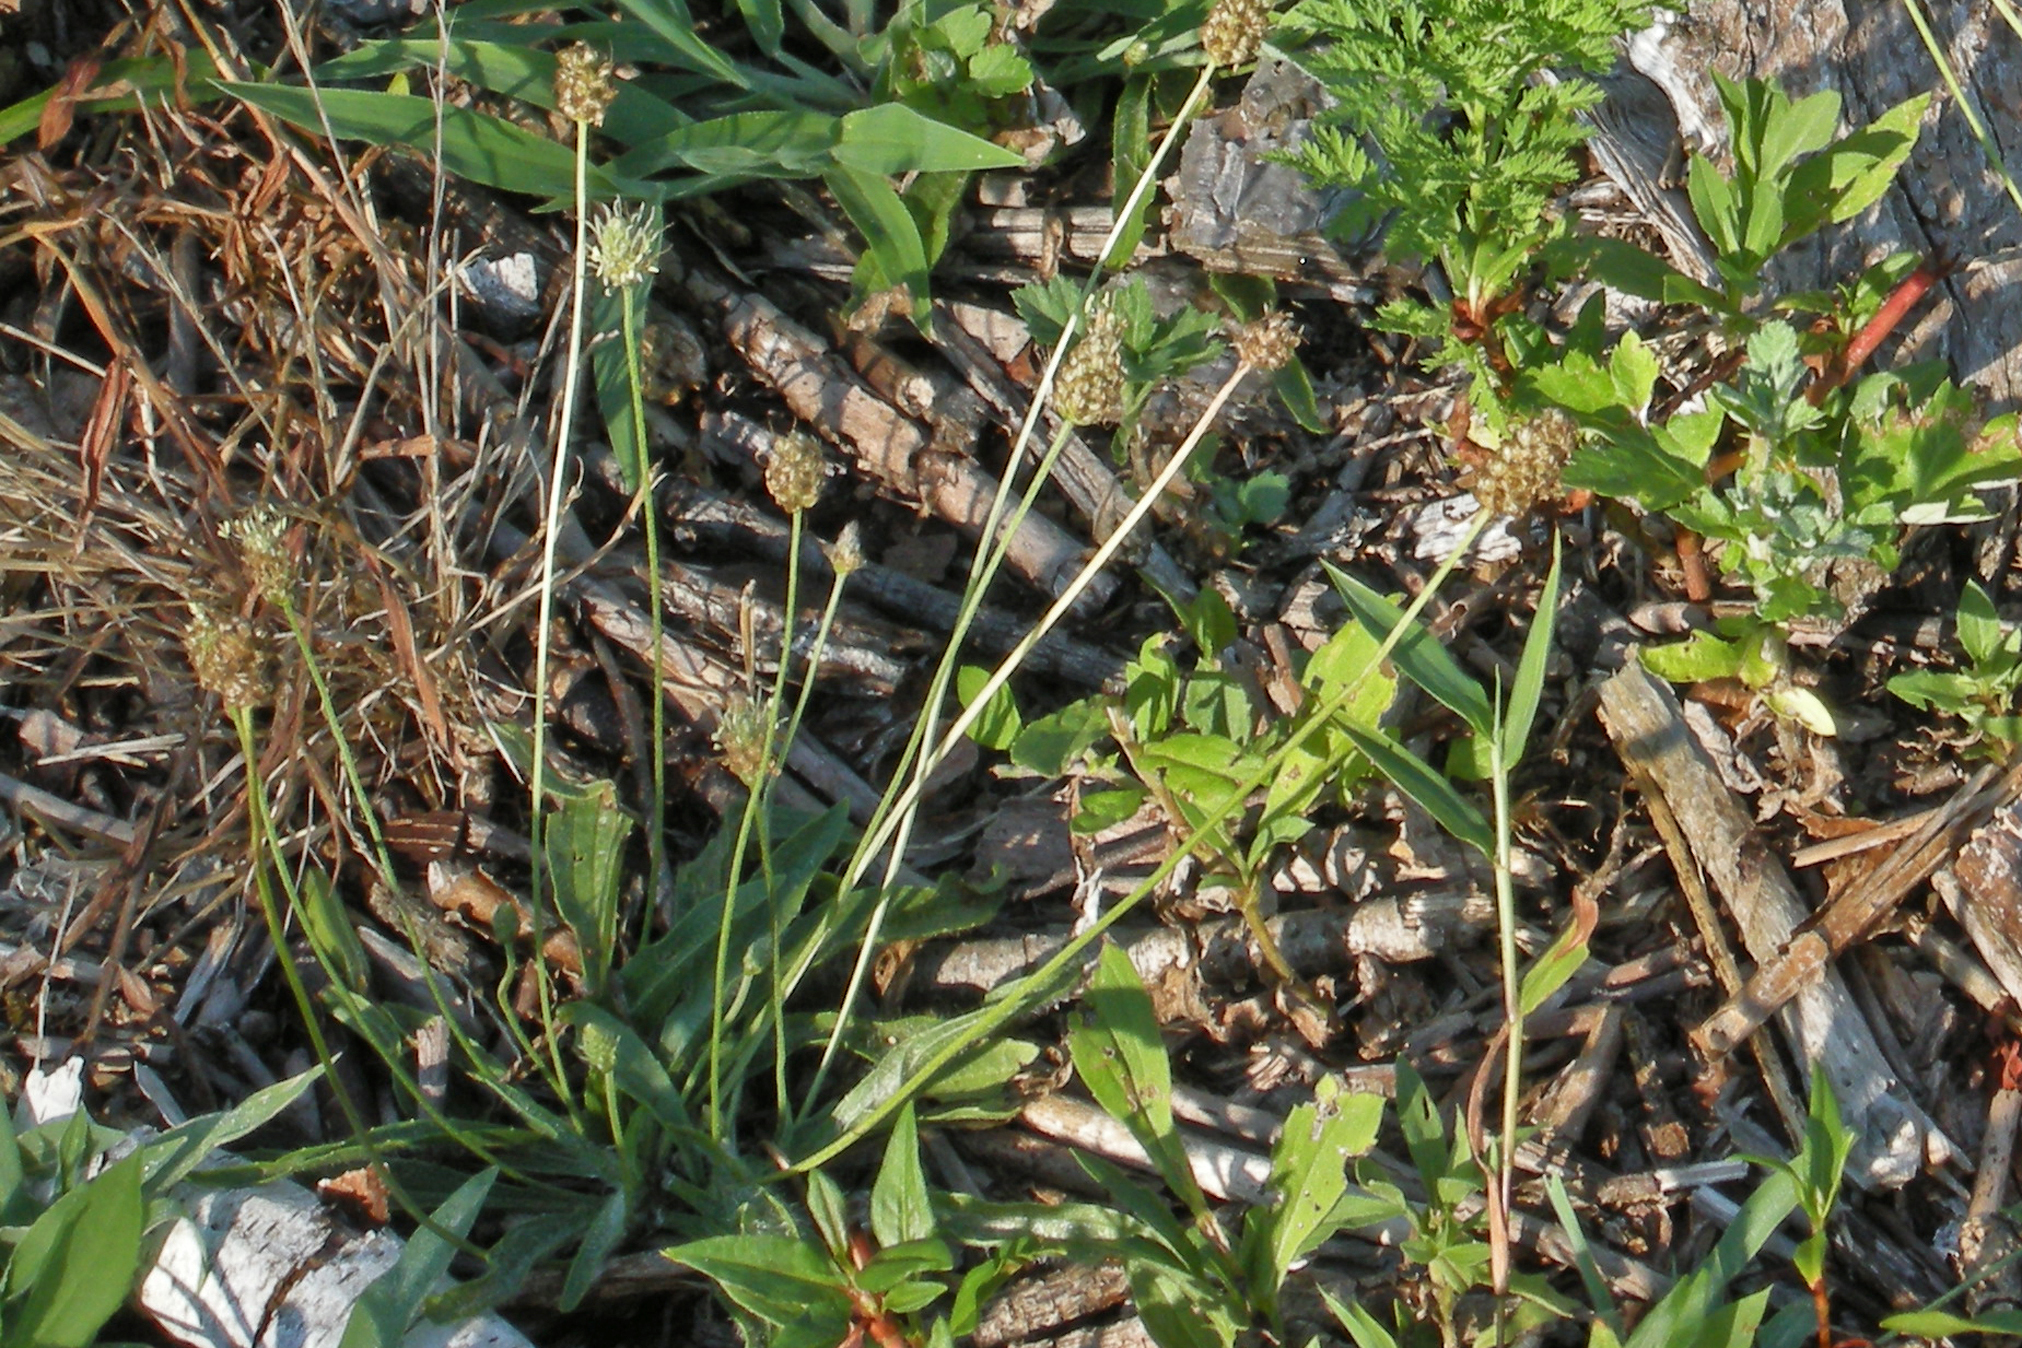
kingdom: Plantae
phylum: Tracheophyta
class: Magnoliopsida
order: Lamiales
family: Plantaginaceae
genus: Plantago
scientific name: Plantago lanceolata
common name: Ribwort plantain
